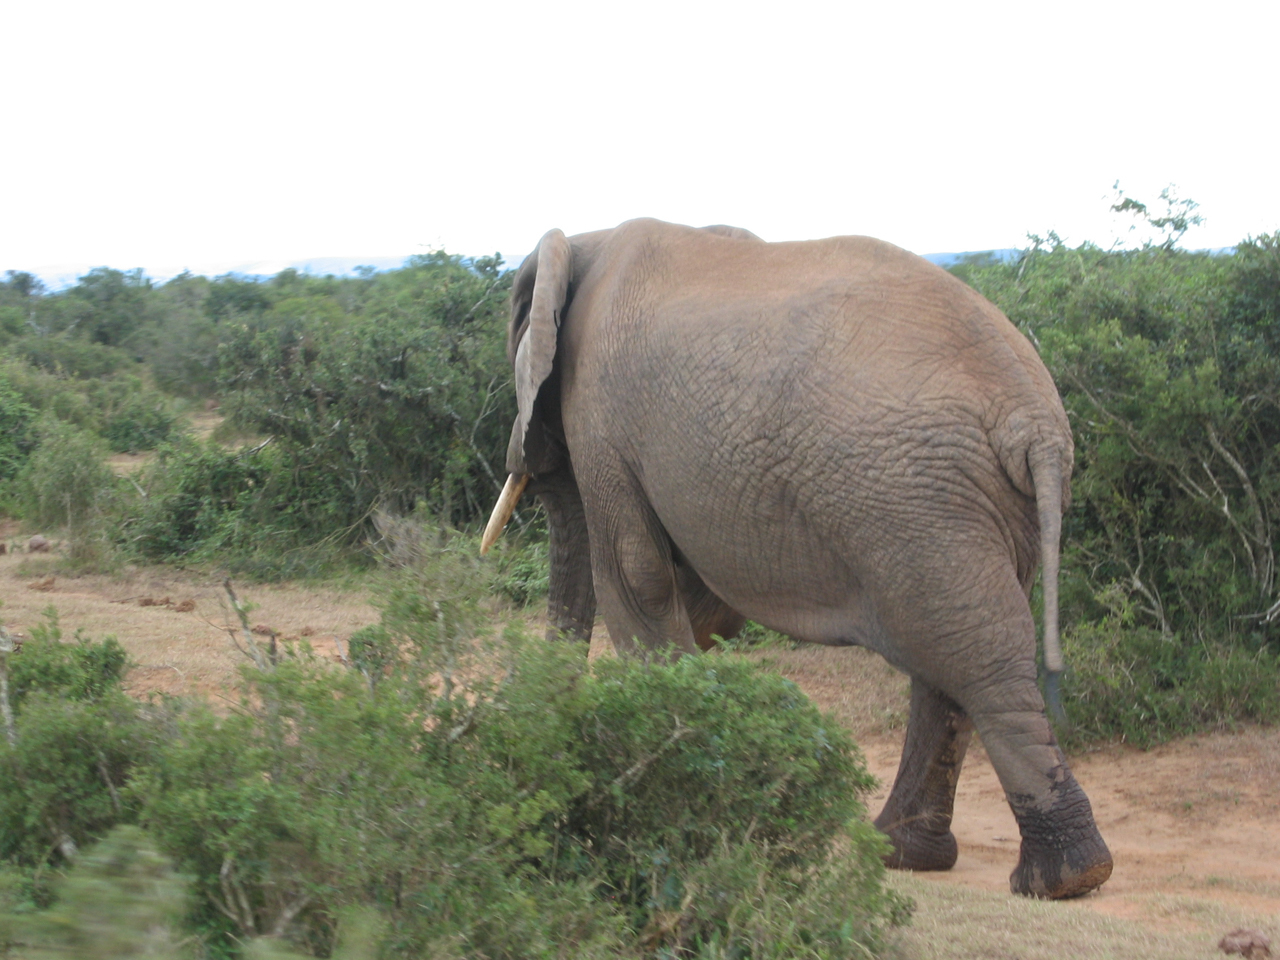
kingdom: Animalia
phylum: Chordata
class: Mammalia
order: Proboscidea
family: Elephantidae
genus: Loxodonta
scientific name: Loxodonta africana
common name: African elephant
